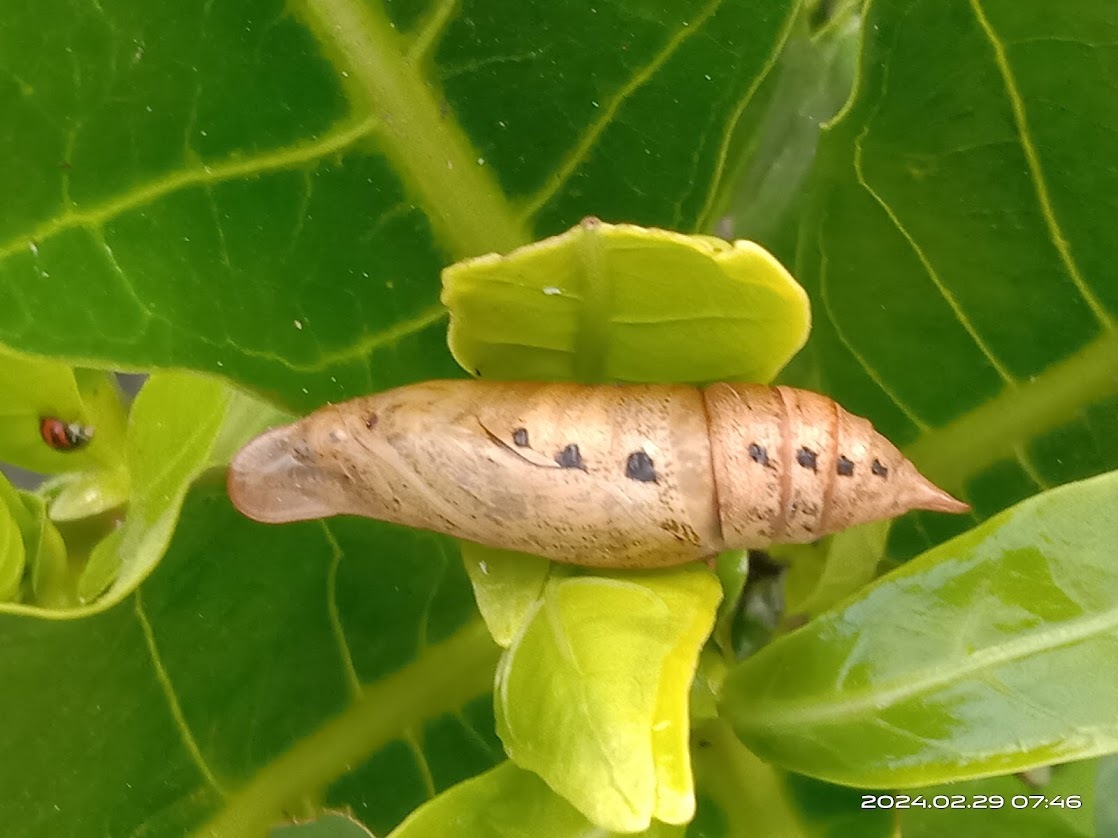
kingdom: Animalia
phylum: Arthropoda
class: Insecta
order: Lepidoptera
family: Sphingidae
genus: Macroglossum
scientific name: Macroglossum sitiene
